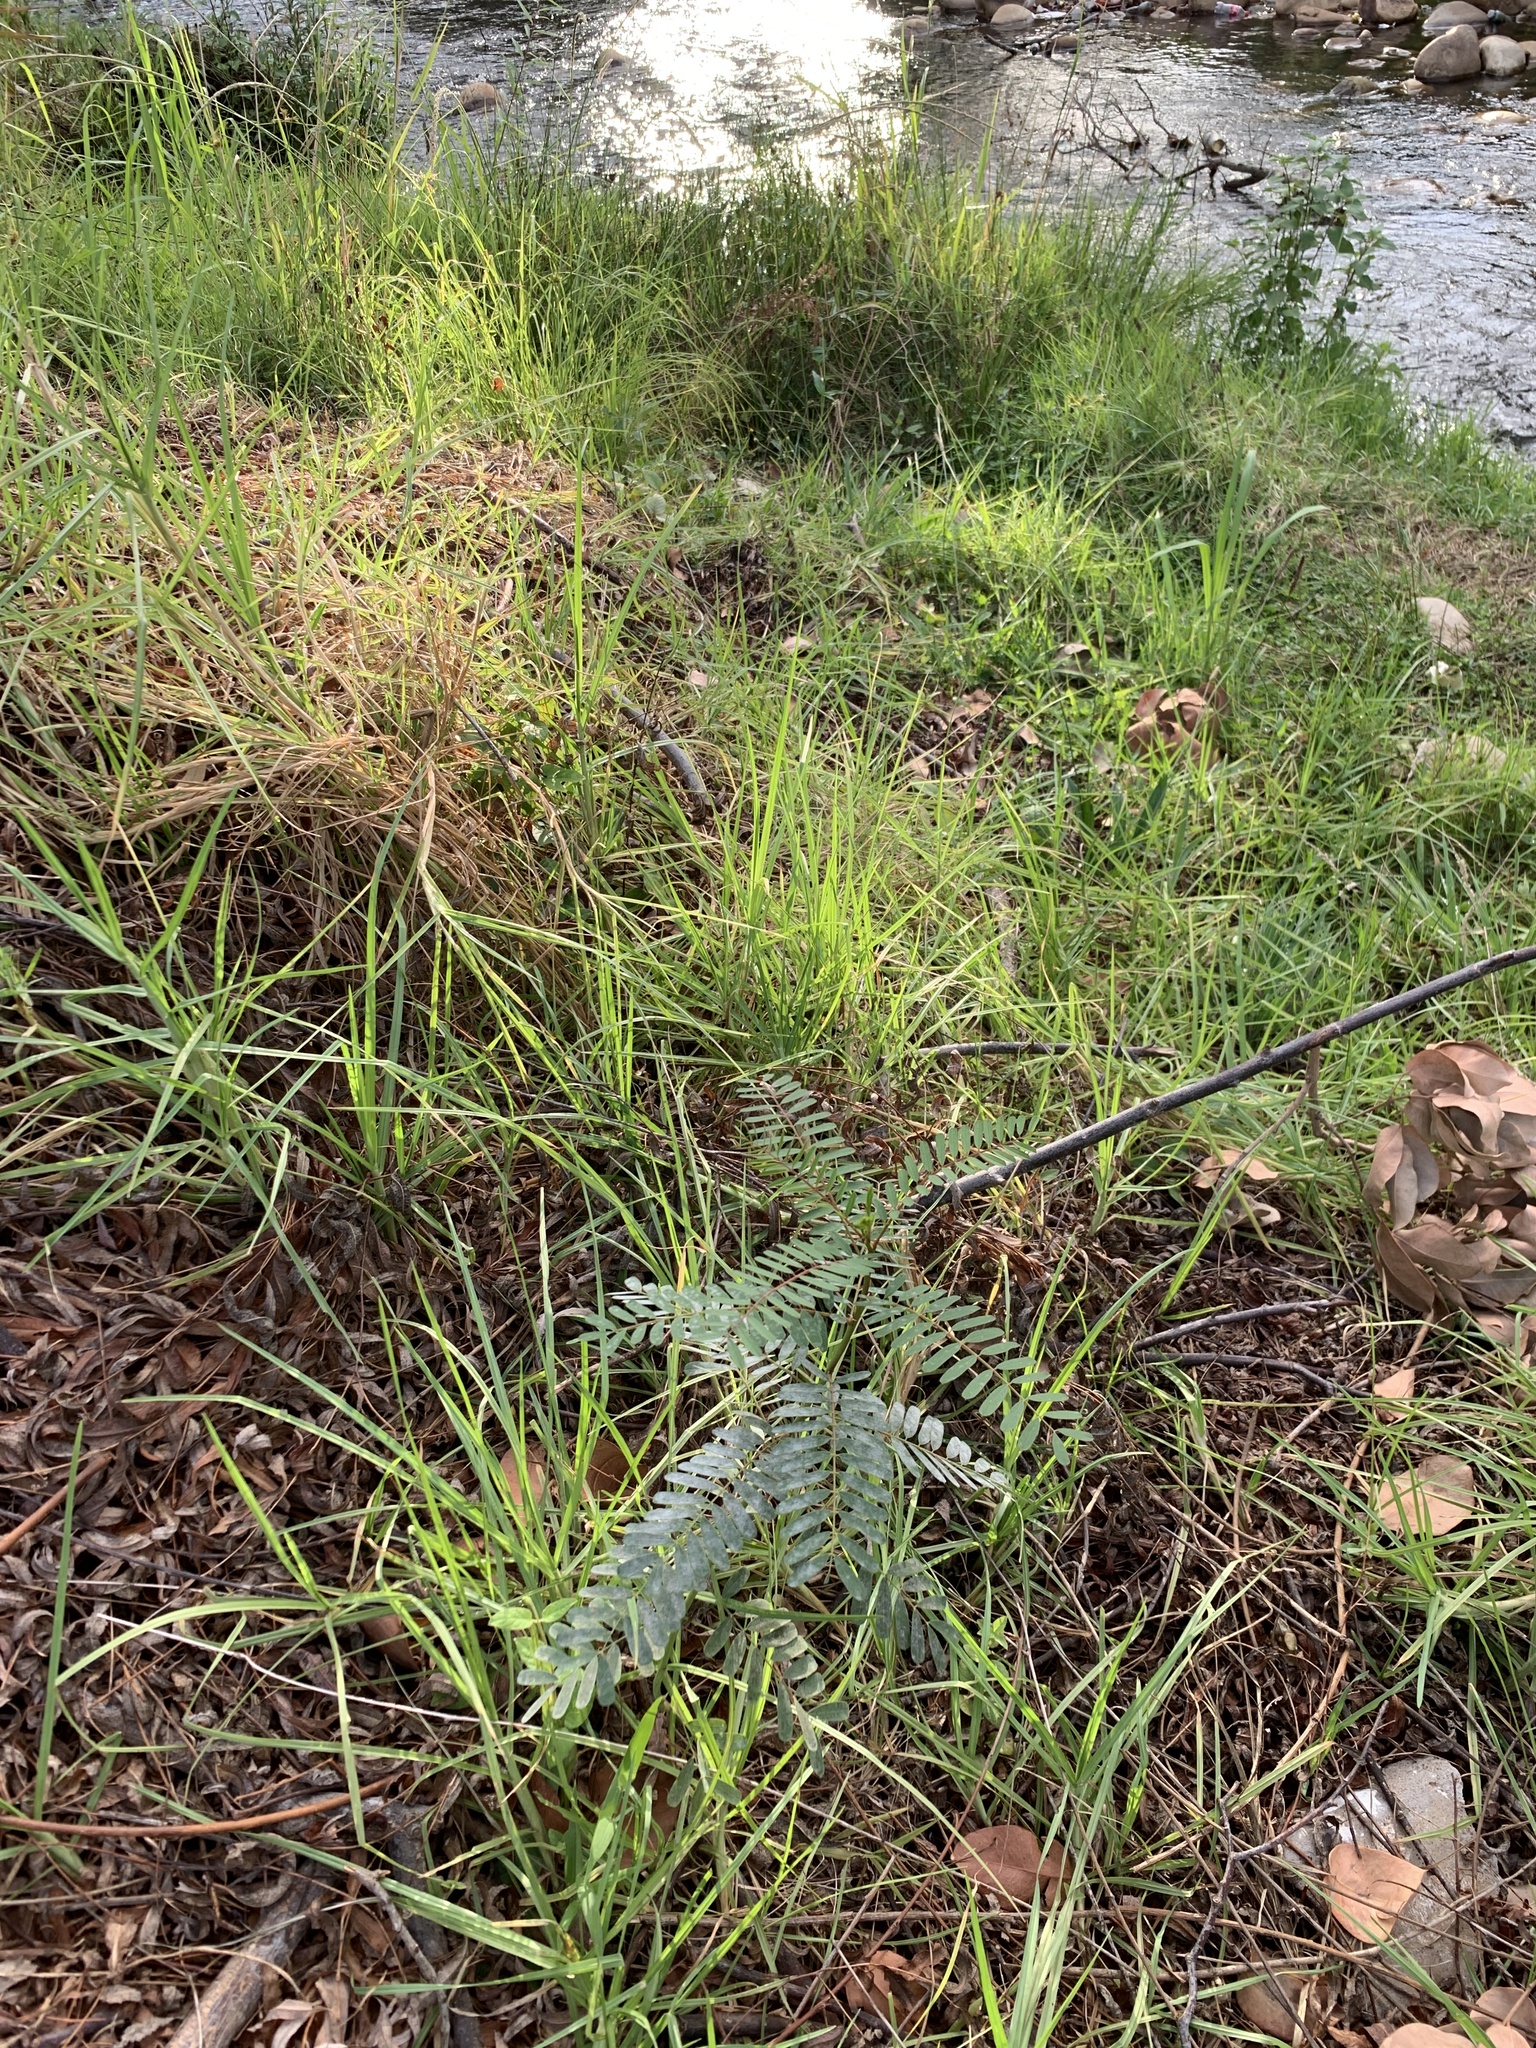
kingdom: Plantae
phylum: Tracheophyta
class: Magnoliopsida
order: Fabales
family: Fabaceae
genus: Sesbania
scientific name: Sesbania punicea
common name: Rattlebox
